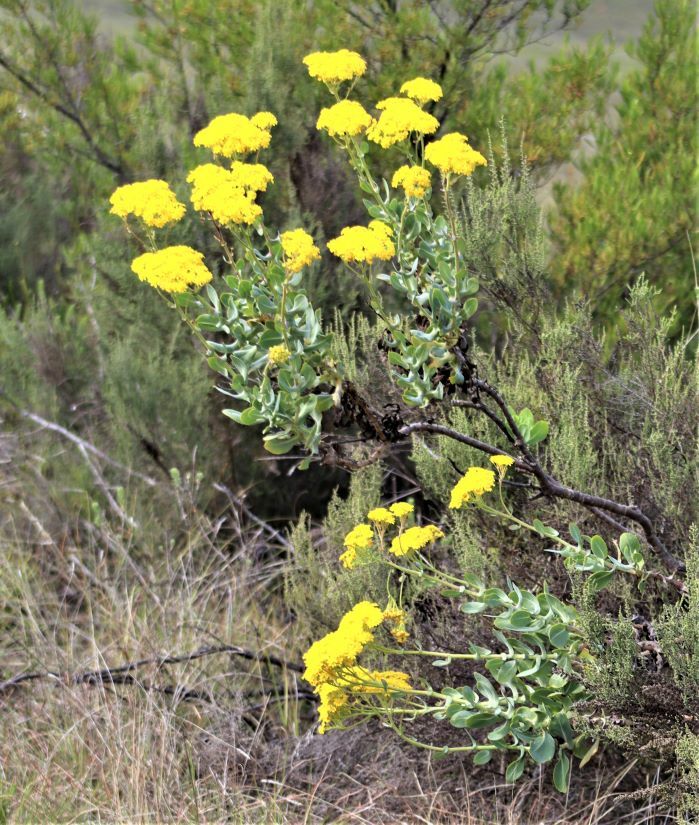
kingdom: Plantae
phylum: Tracheophyta
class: Magnoliopsida
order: Asterales
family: Asteraceae
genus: Othonna
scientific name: Othonna parviflora
